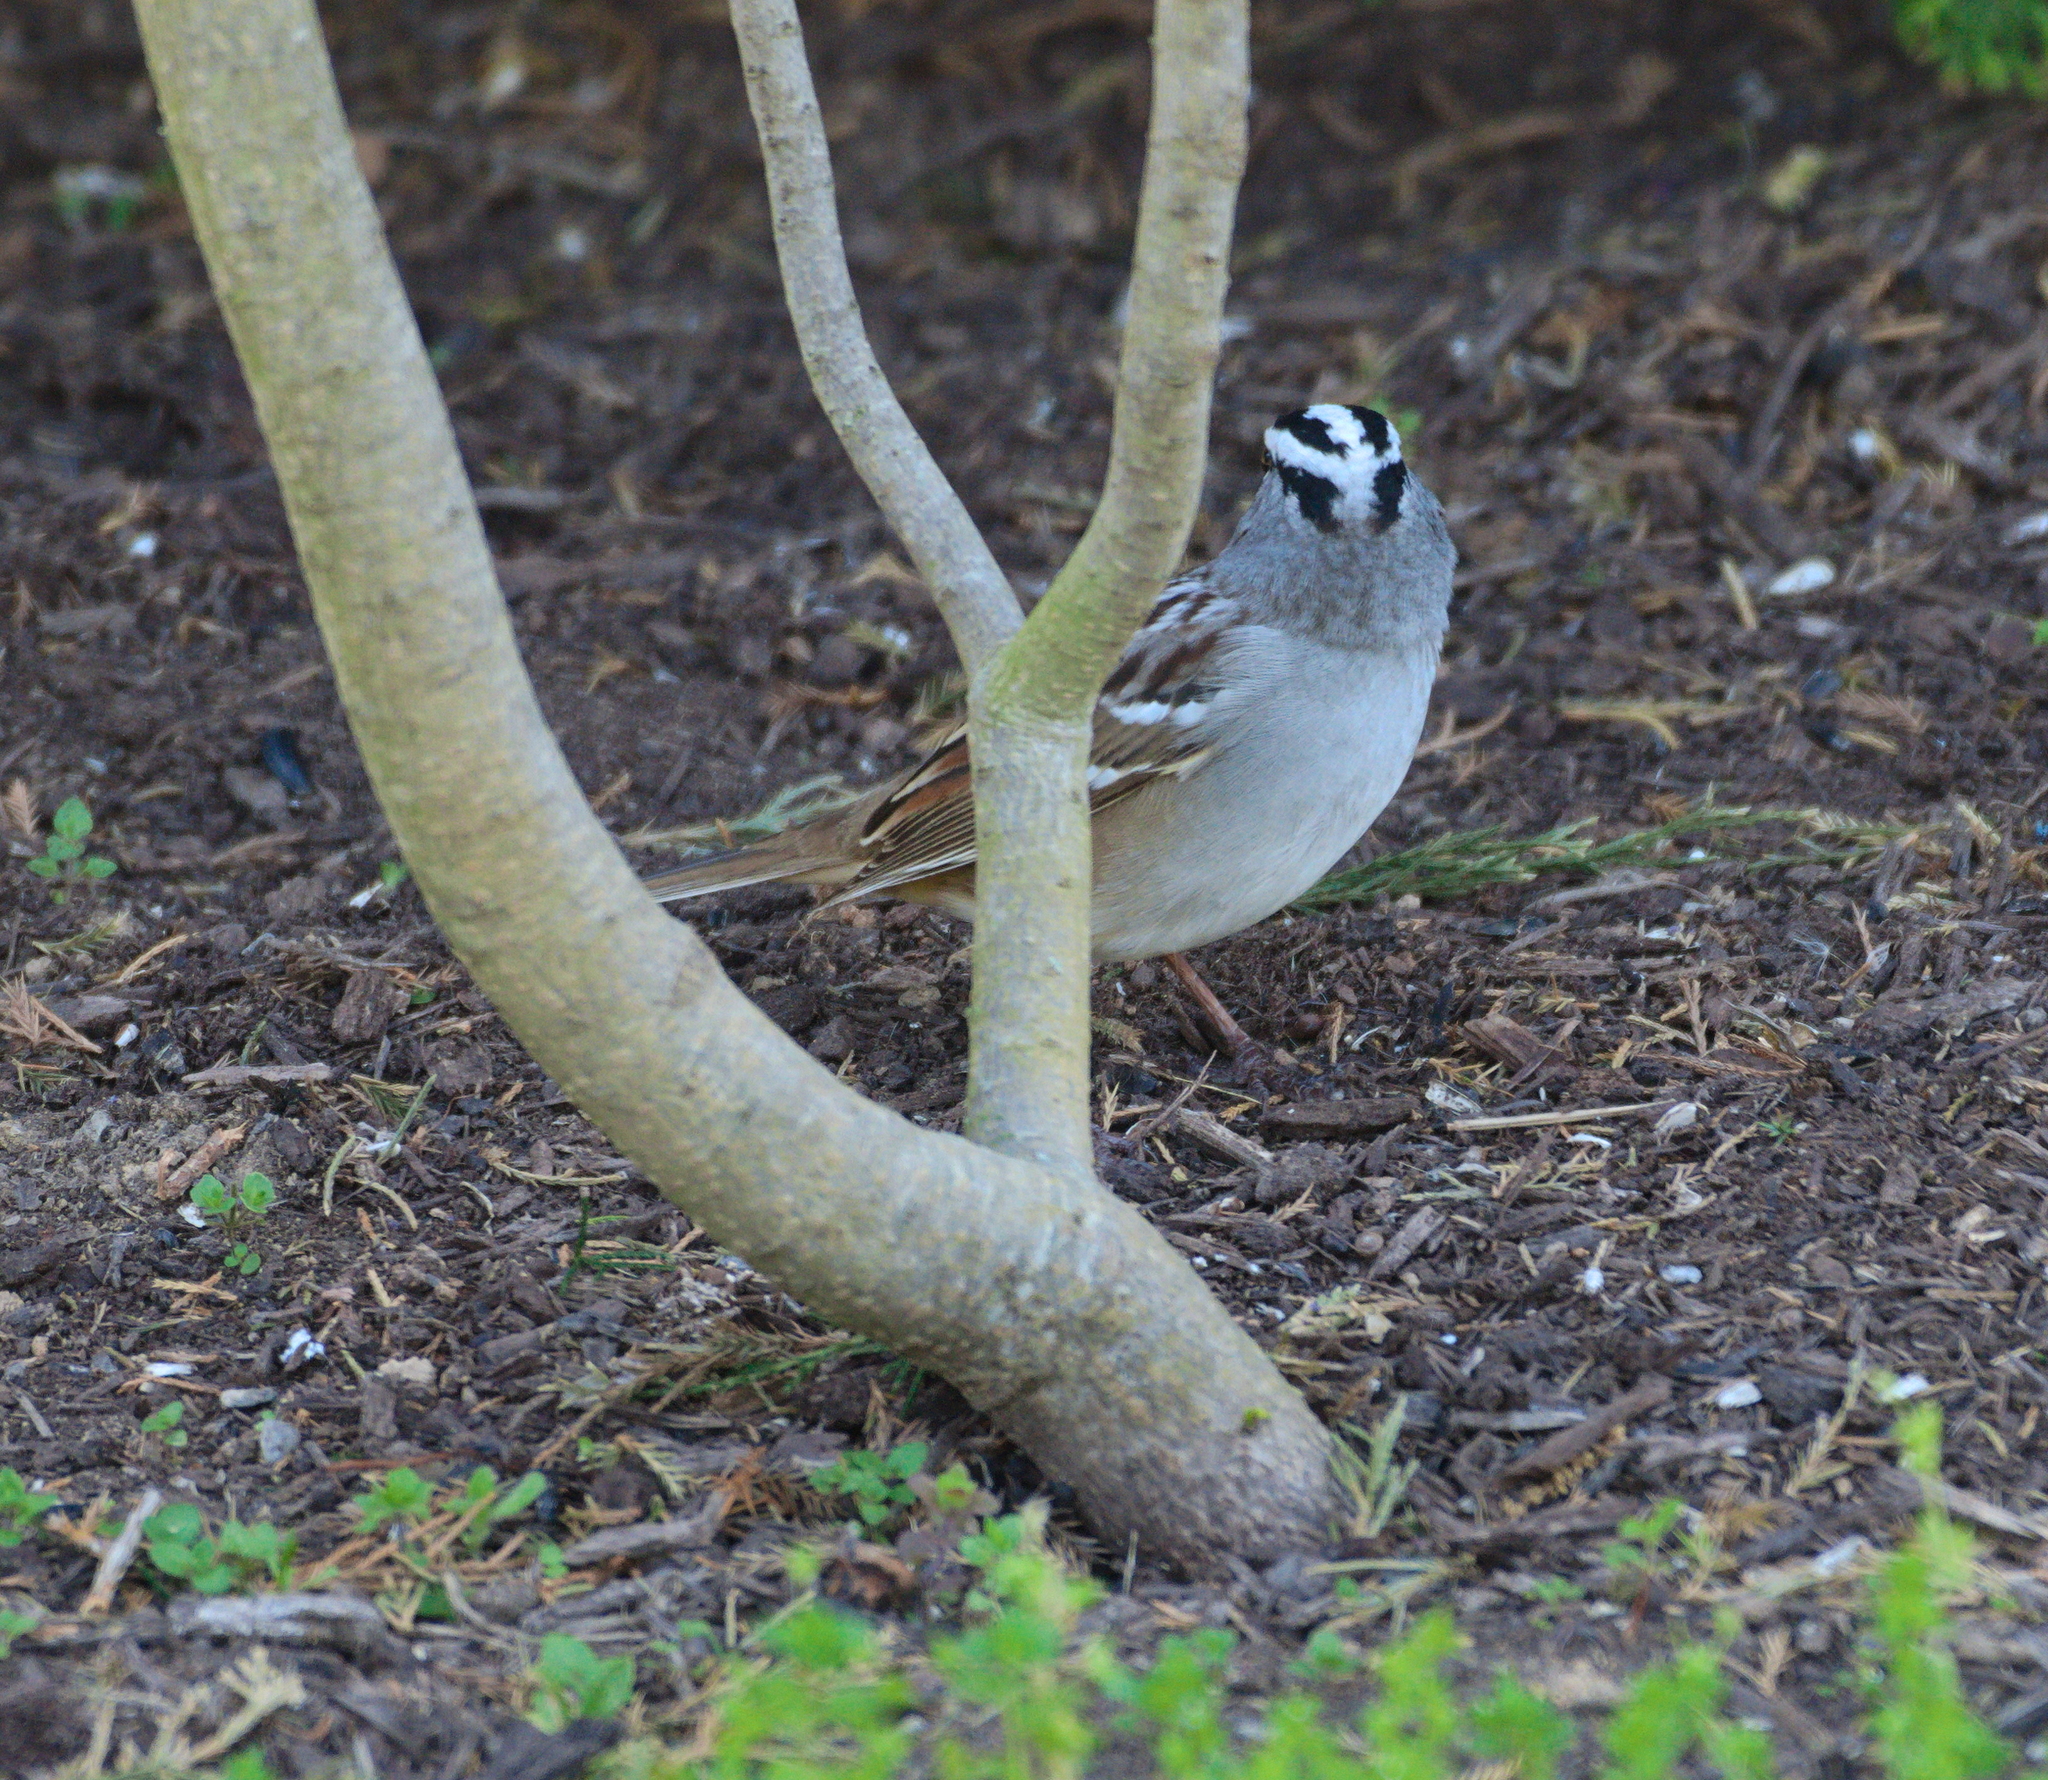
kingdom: Animalia
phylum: Chordata
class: Aves
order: Passeriformes
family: Passerellidae
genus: Zonotrichia
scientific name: Zonotrichia leucophrys
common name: White-crowned sparrow
